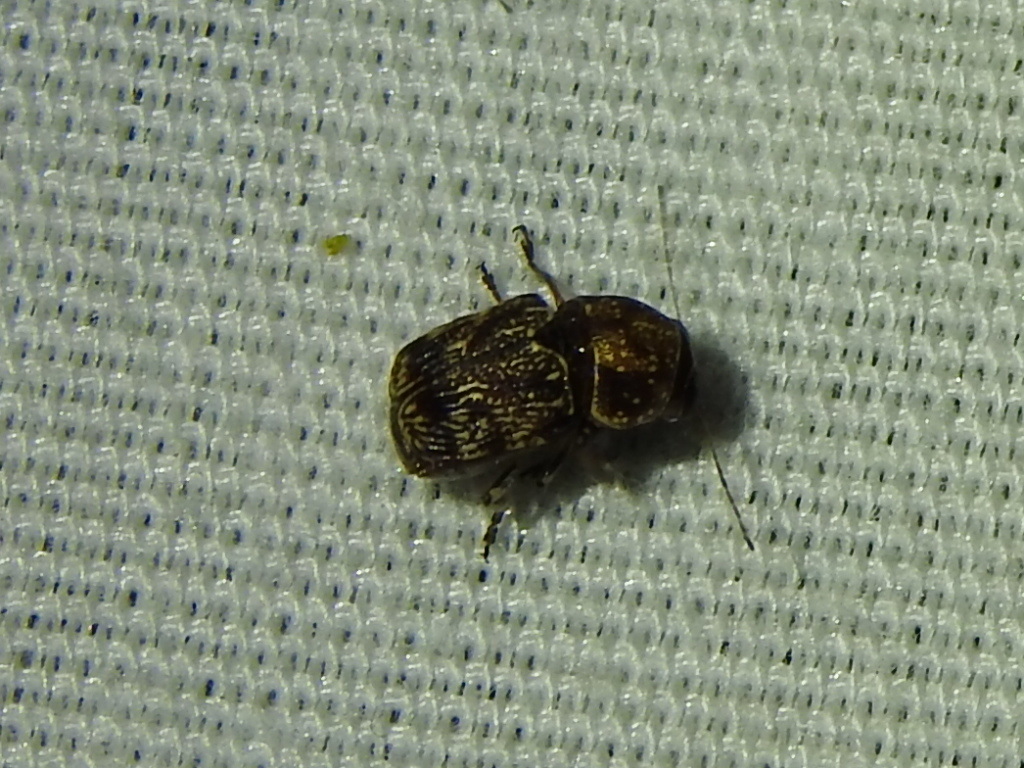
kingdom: Animalia
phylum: Arthropoda
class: Insecta
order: Coleoptera
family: Chrysomelidae
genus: Pachybrachis
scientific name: Pachybrachis latithorax
